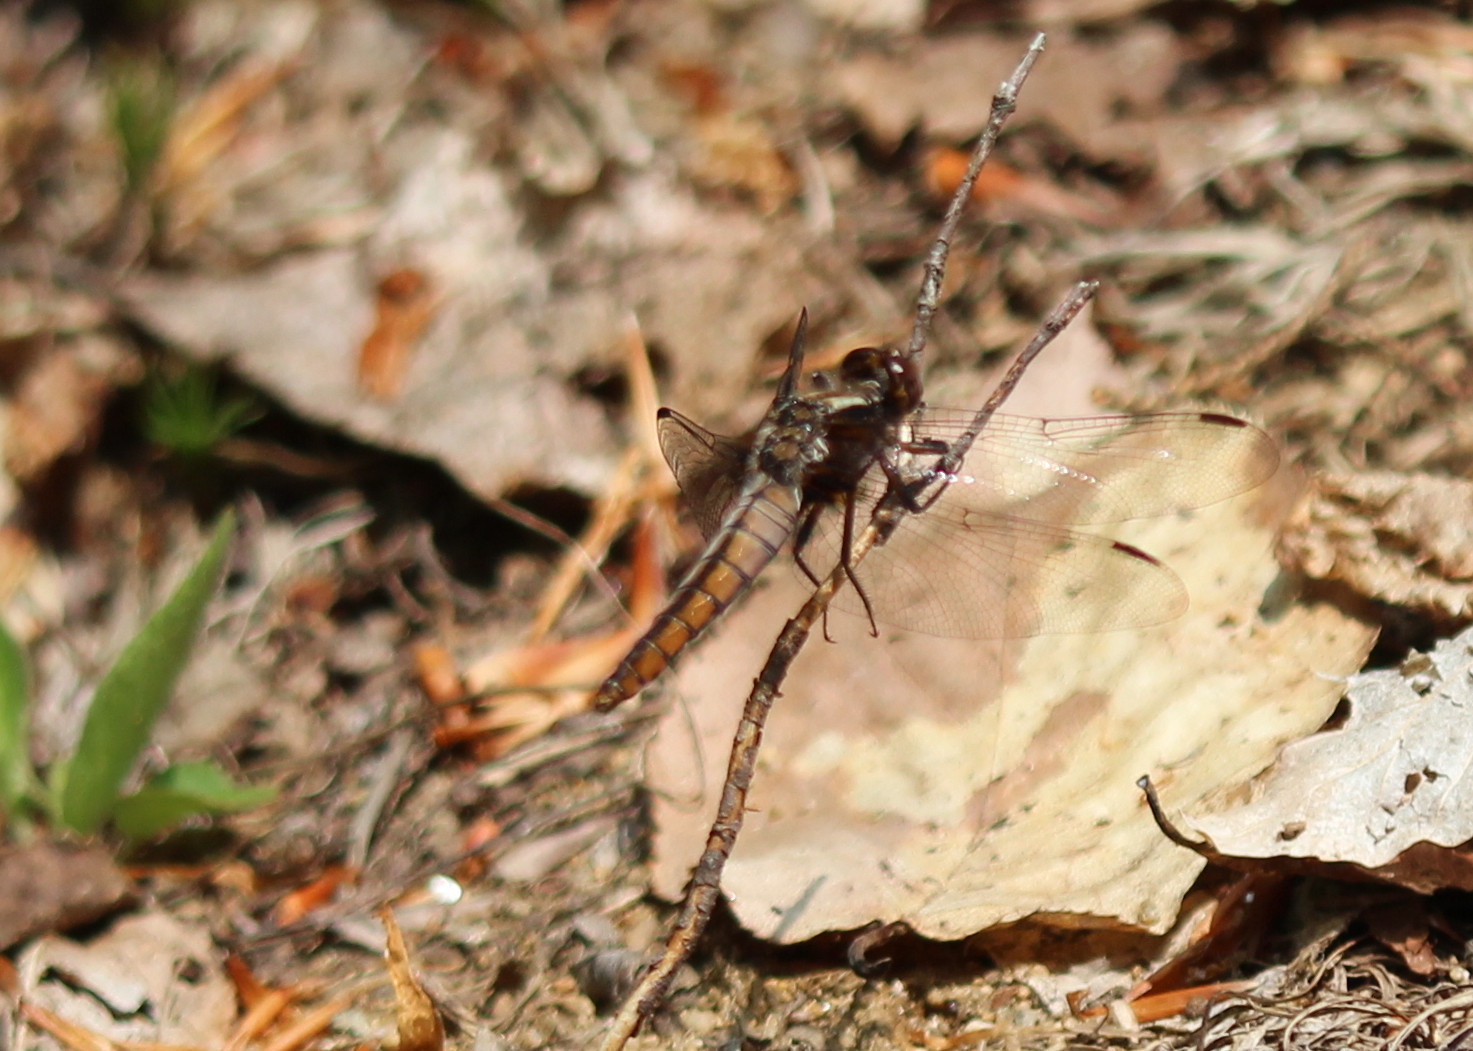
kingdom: Animalia
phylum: Arthropoda
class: Insecta
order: Odonata
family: Libellulidae
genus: Ladona
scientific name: Ladona julia
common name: Chalk-fronted corporal
